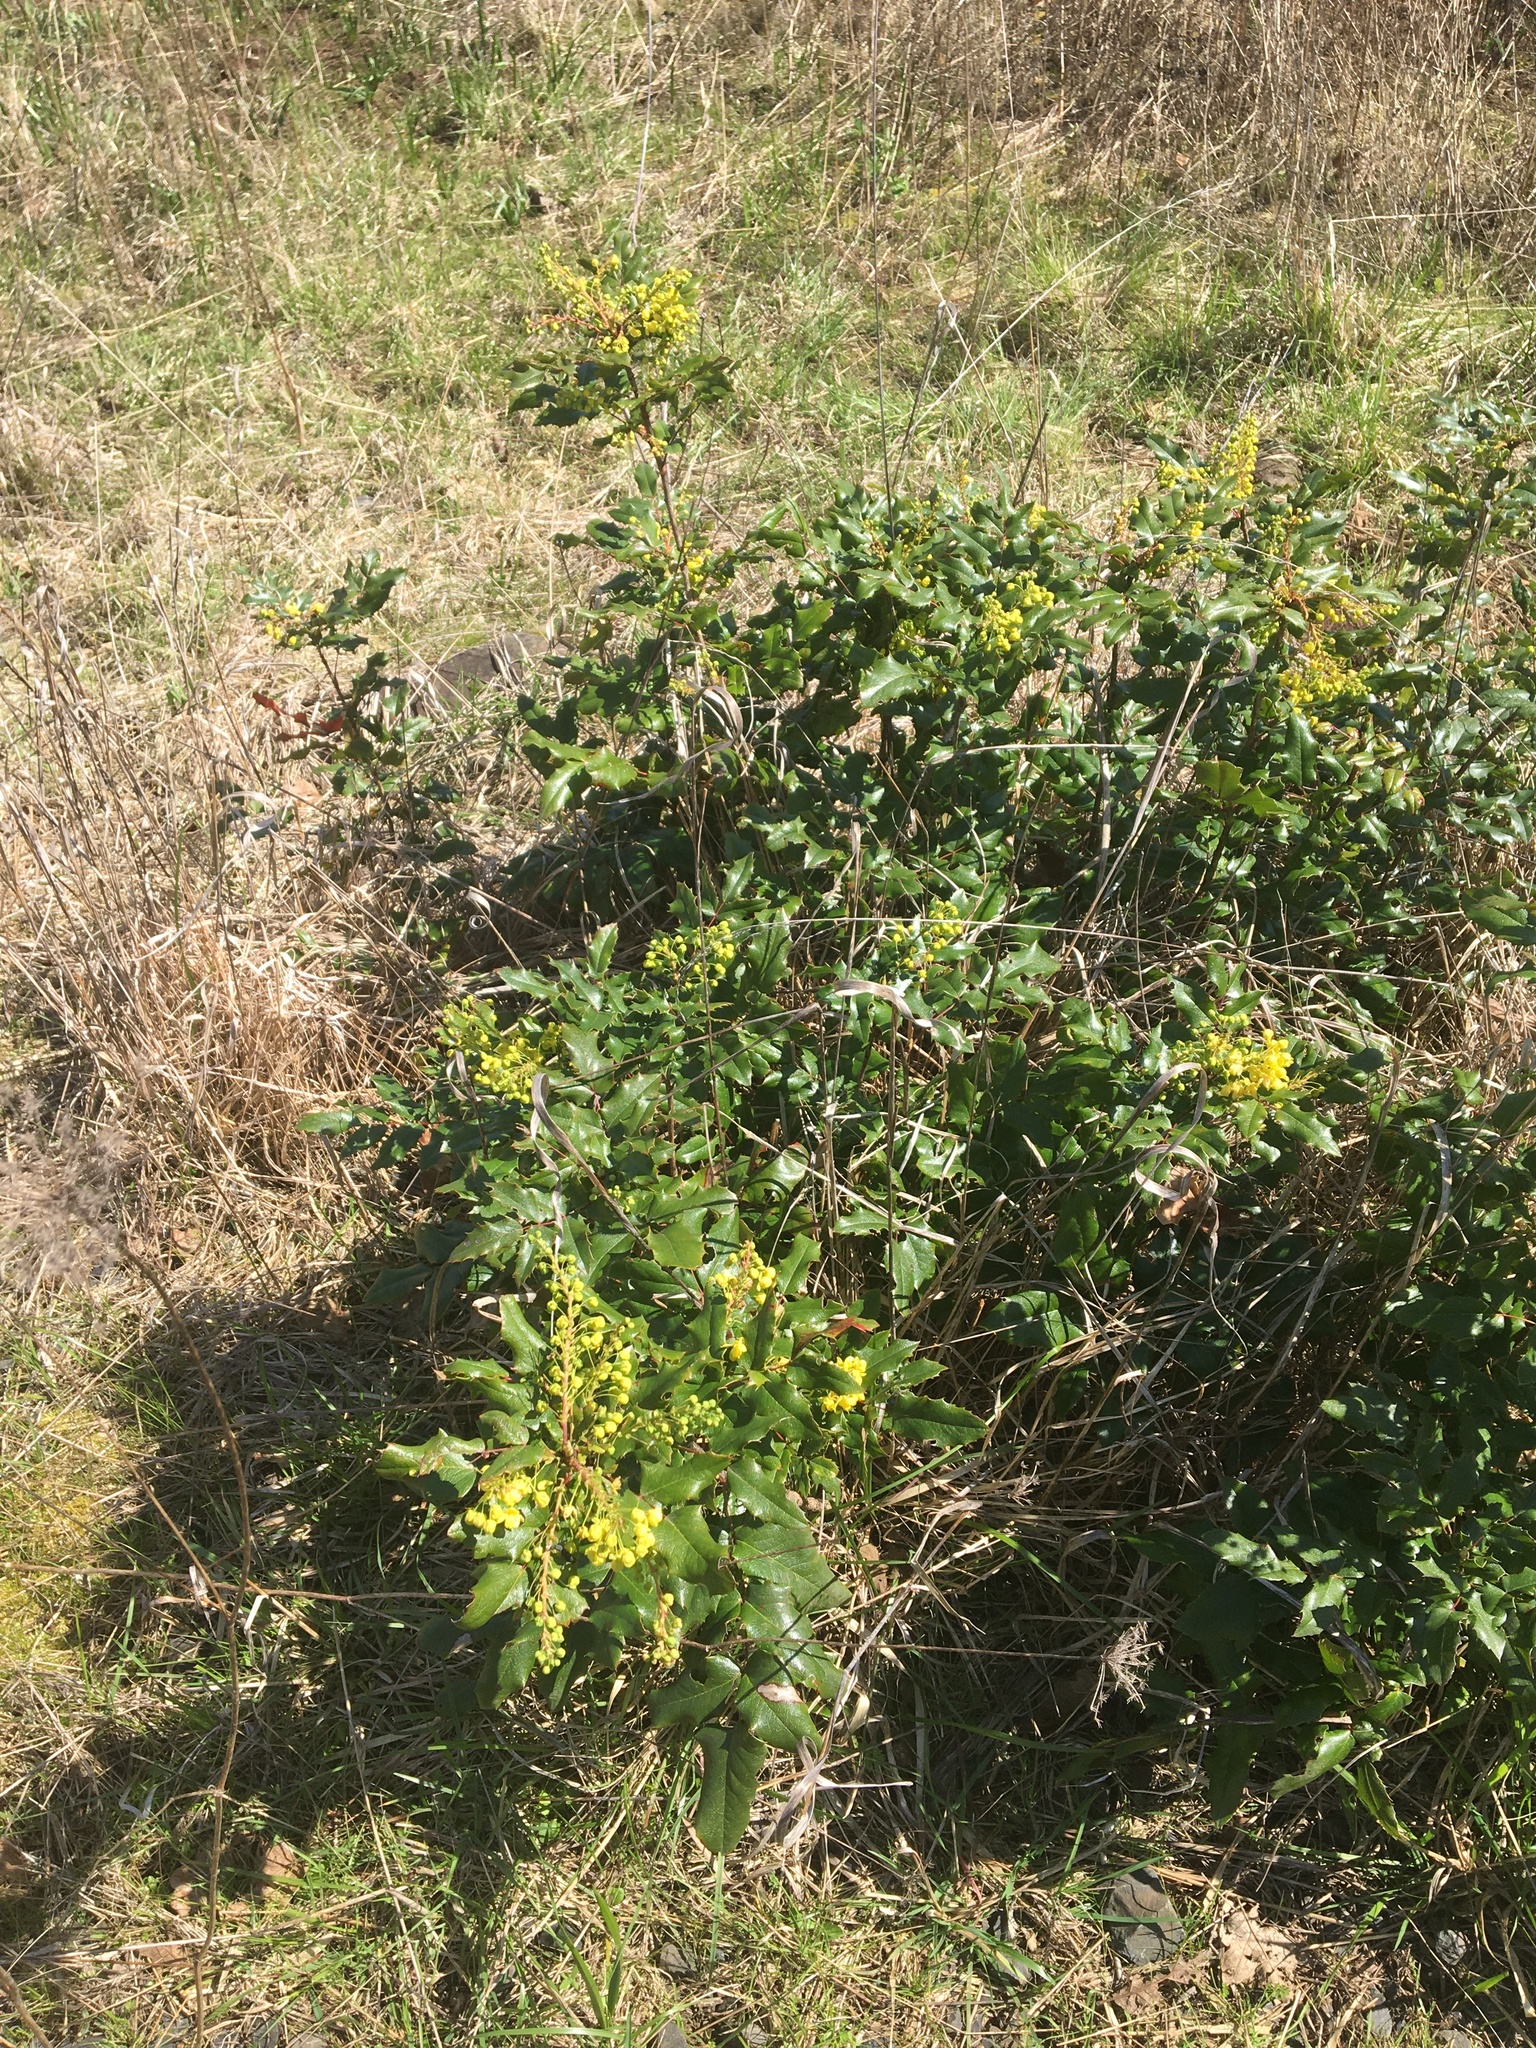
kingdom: Plantae
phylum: Tracheophyta
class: Magnoliopsida
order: Ranunculales
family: Berberidaceae
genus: Mahonia
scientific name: Mahonia aquifolium
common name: Oregon-grape
